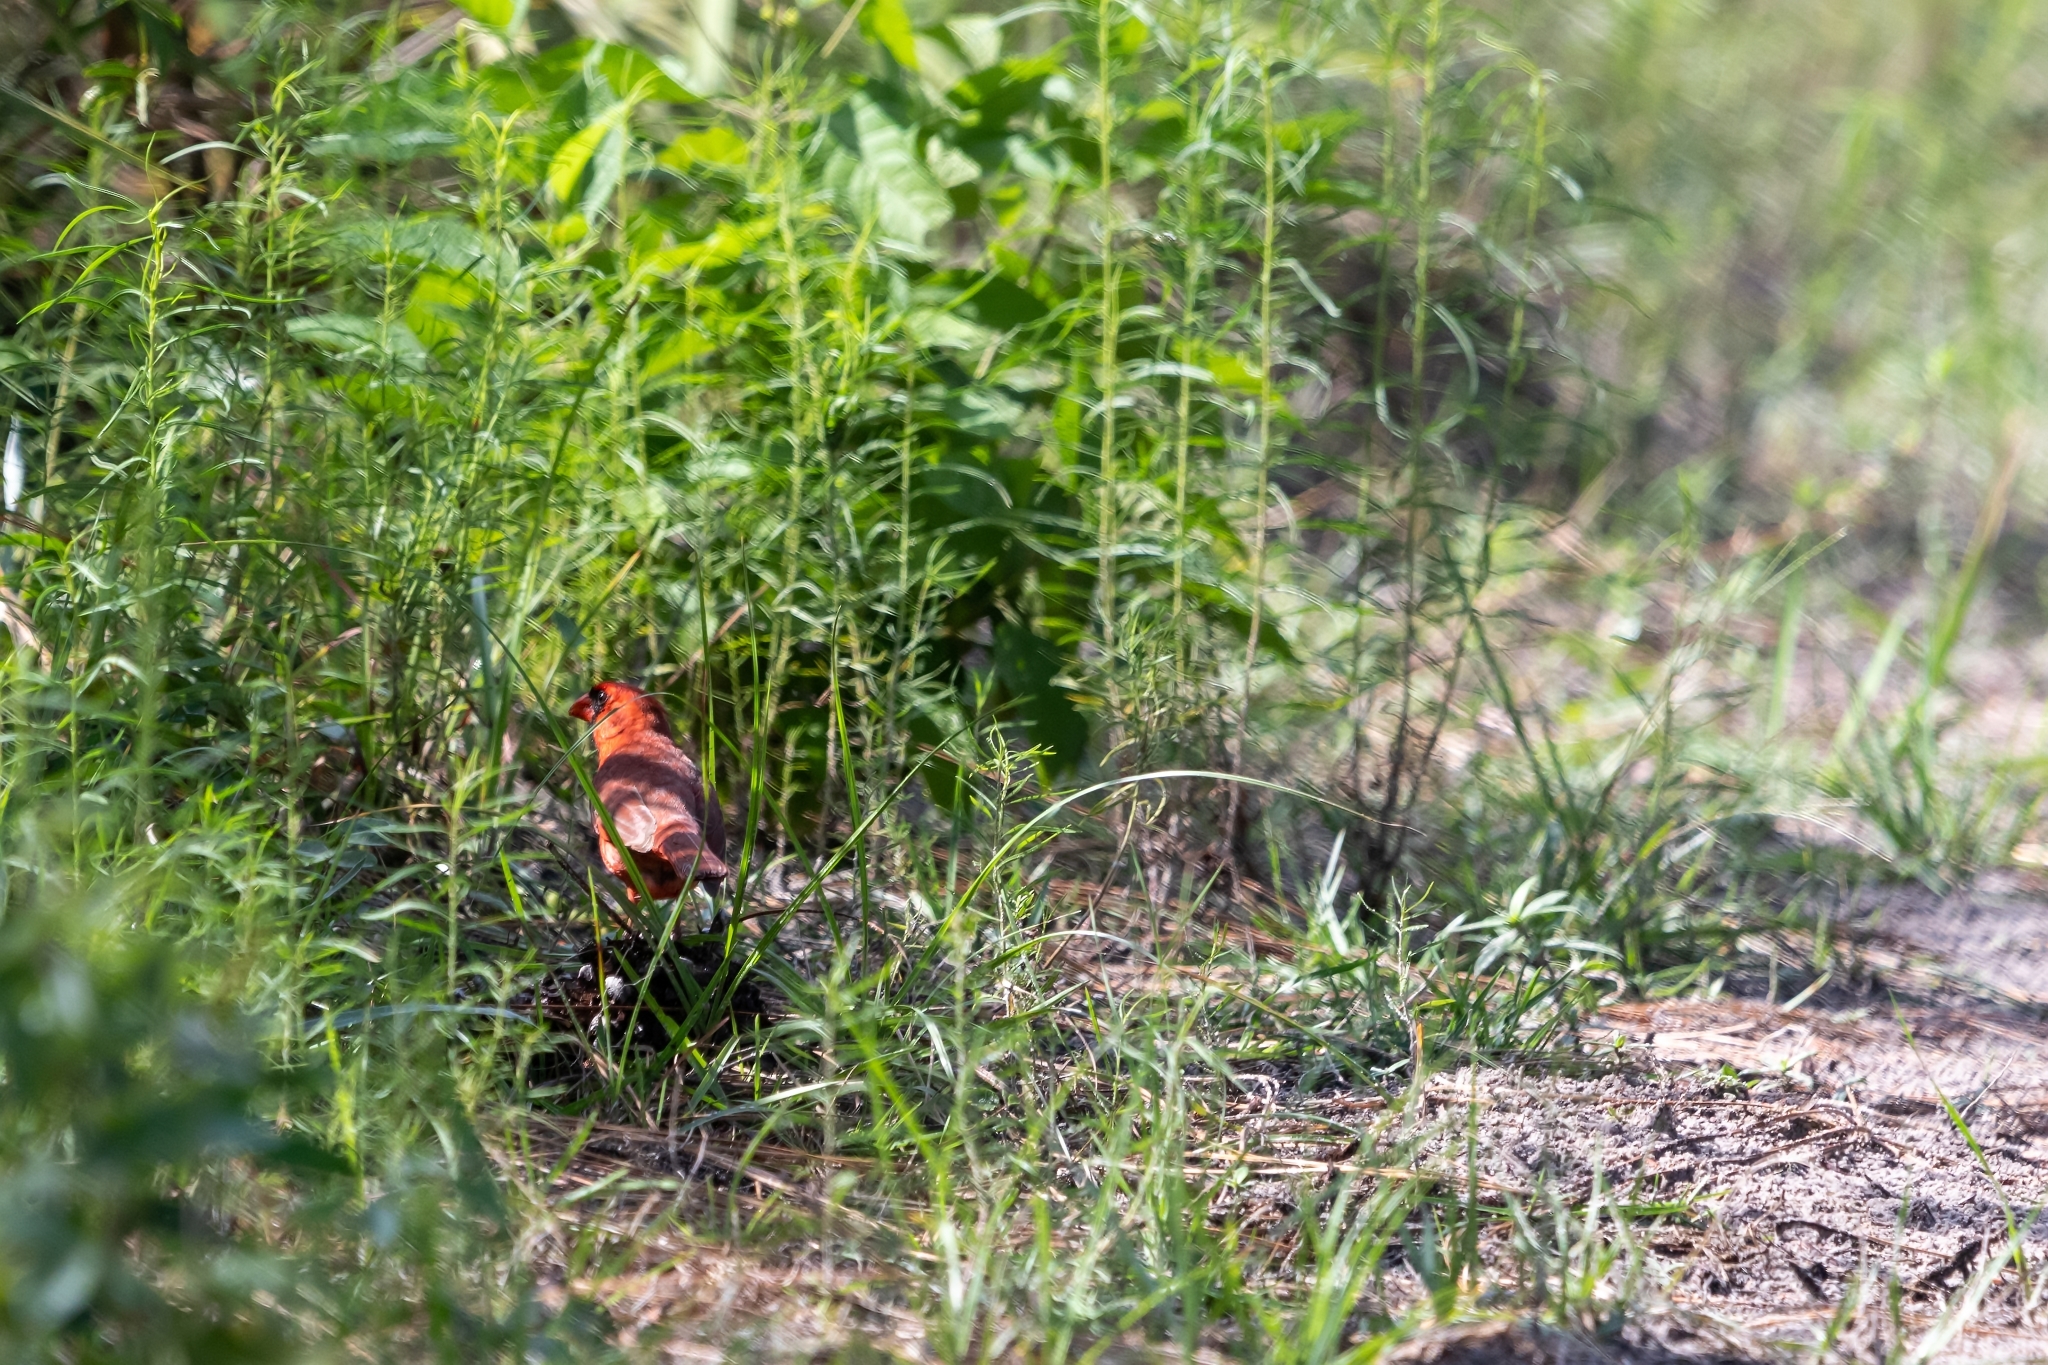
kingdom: Animalia
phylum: Chordata
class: Aves
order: Passeriformes
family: Cardinalidae
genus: Cardinalis
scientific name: Cardinalis cardinalis
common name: Northern cardinal
